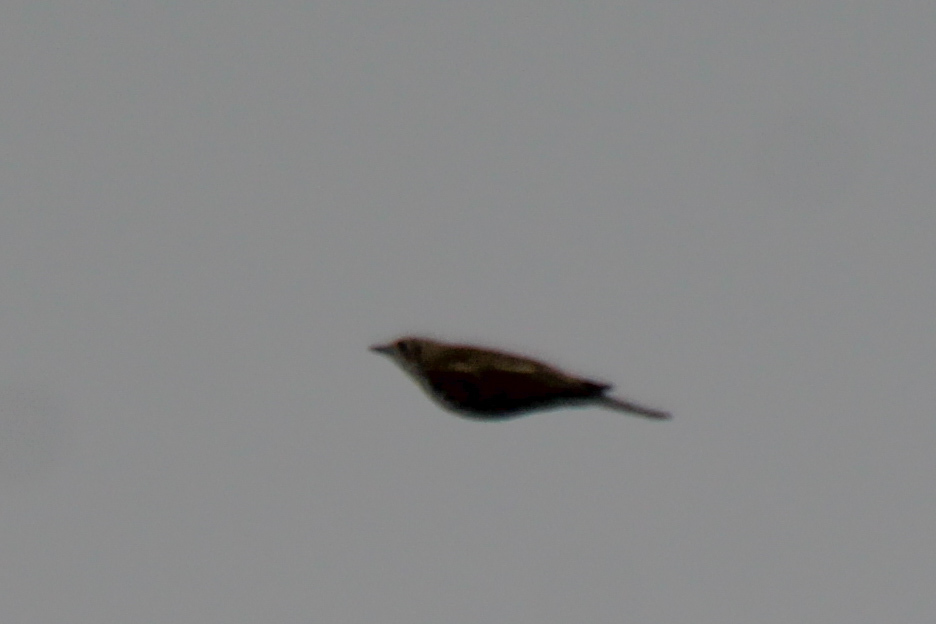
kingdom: Animalia
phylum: Chordata
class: Aves
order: Passeriformes
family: Turdidae
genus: Turdus
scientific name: Turdus viscivorus
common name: Mistle thrush
